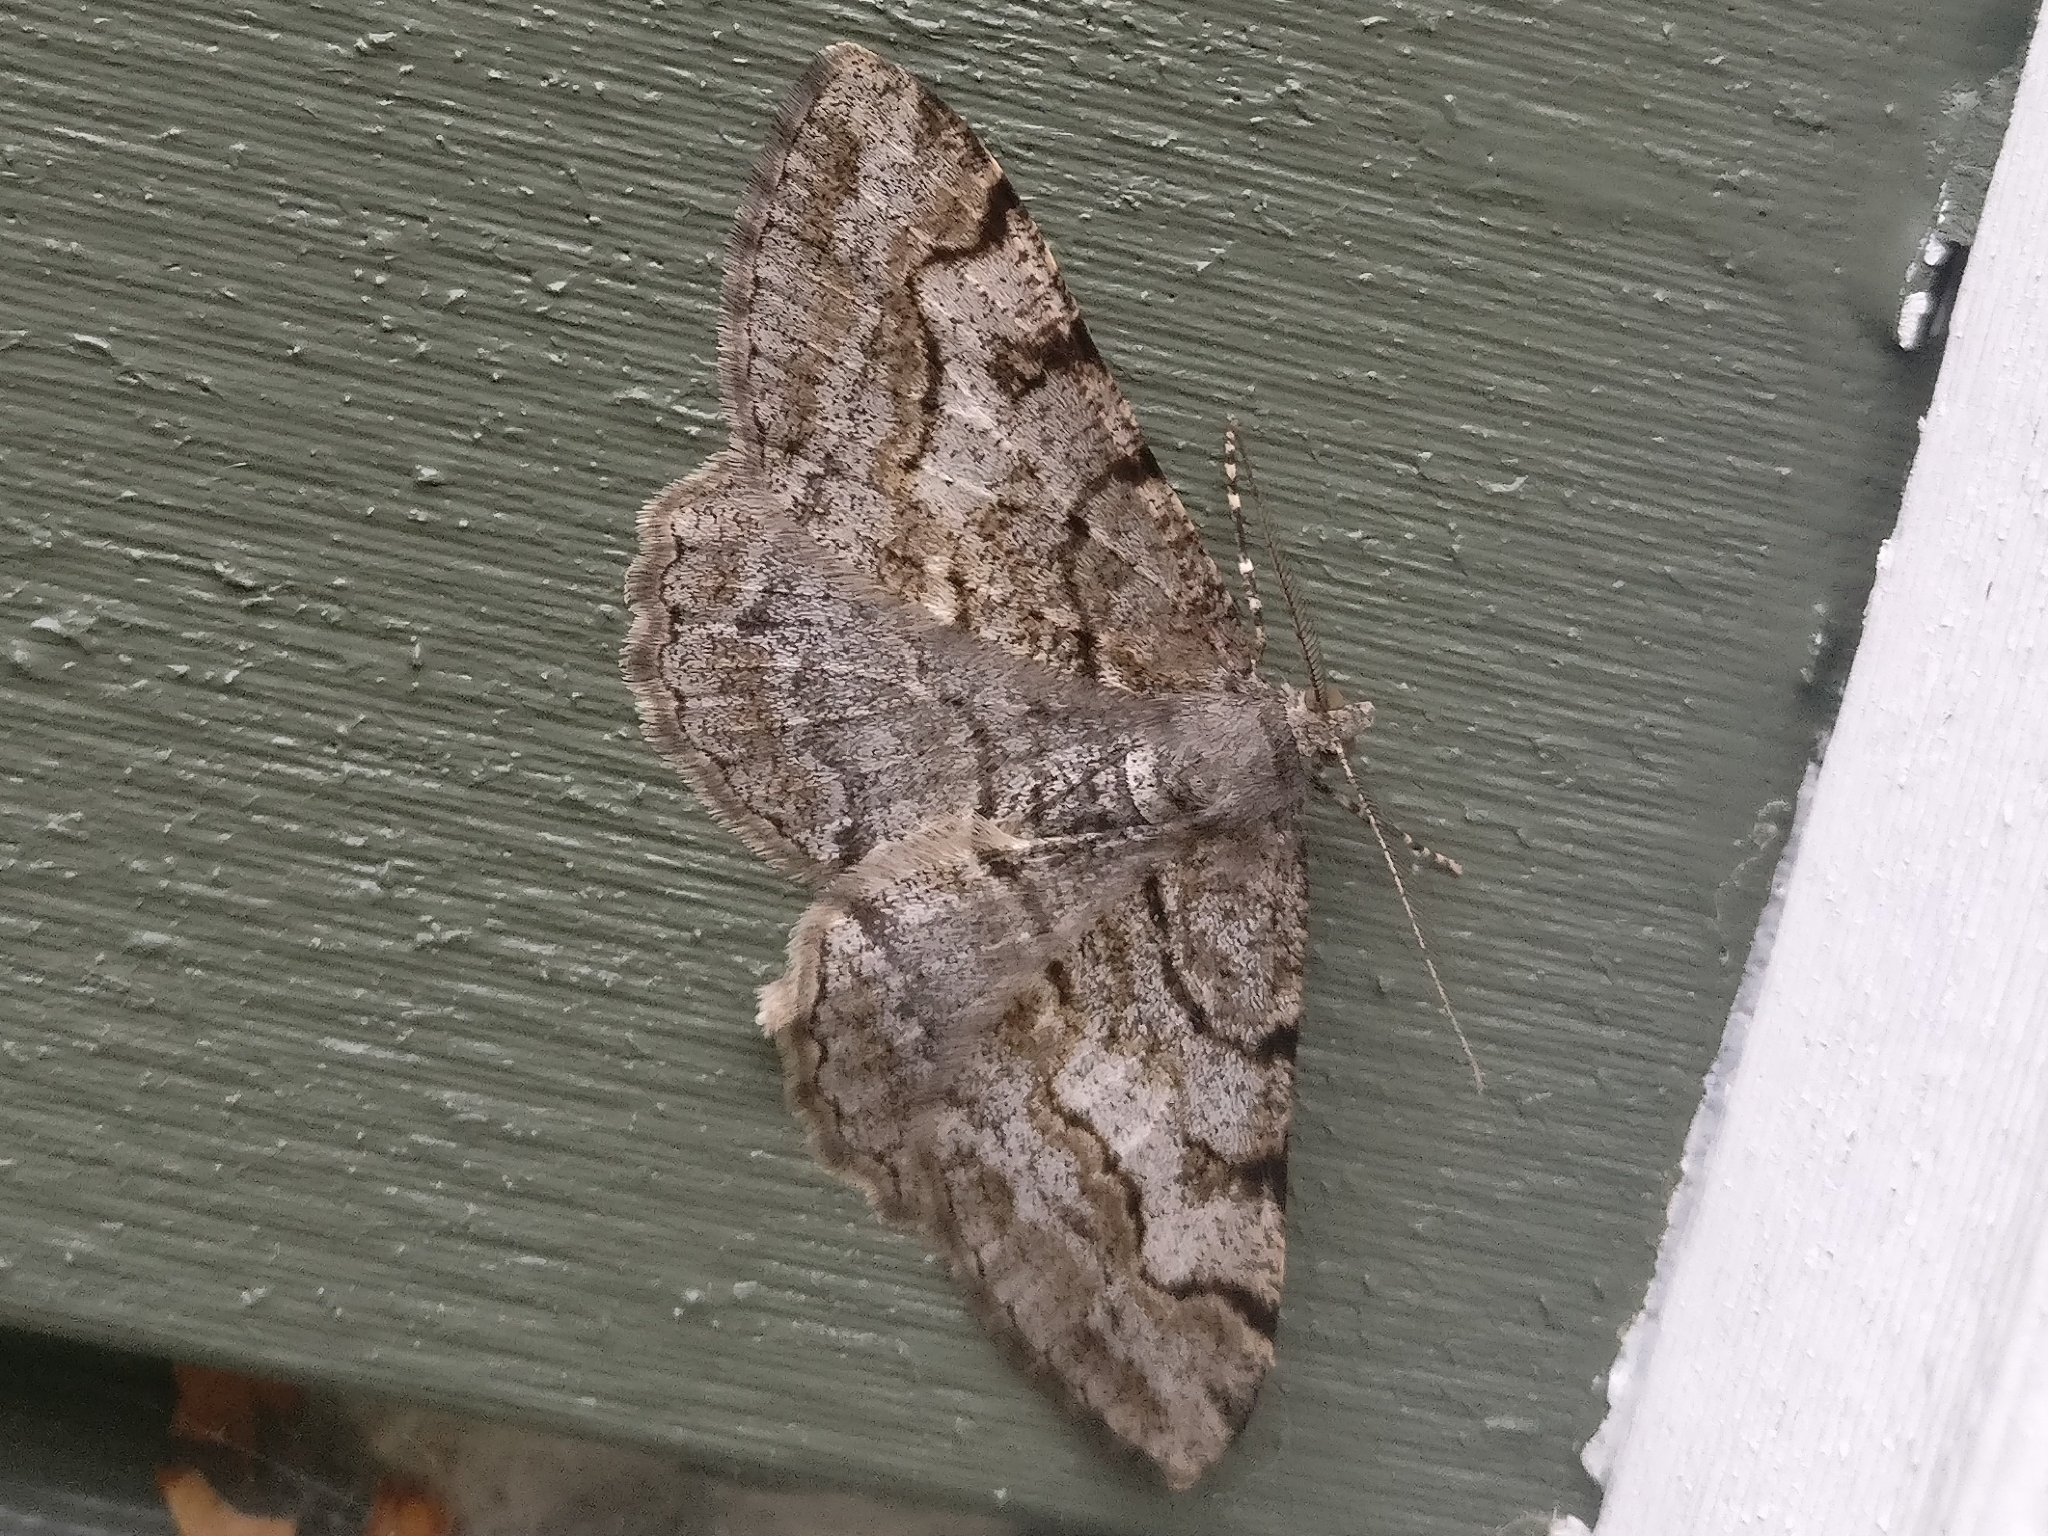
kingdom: Animalia
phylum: Arthropoda
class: Insecta
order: Lepidoptera
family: Geometridae
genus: Alcis
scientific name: Alcis repandata
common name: Mottled beauty
